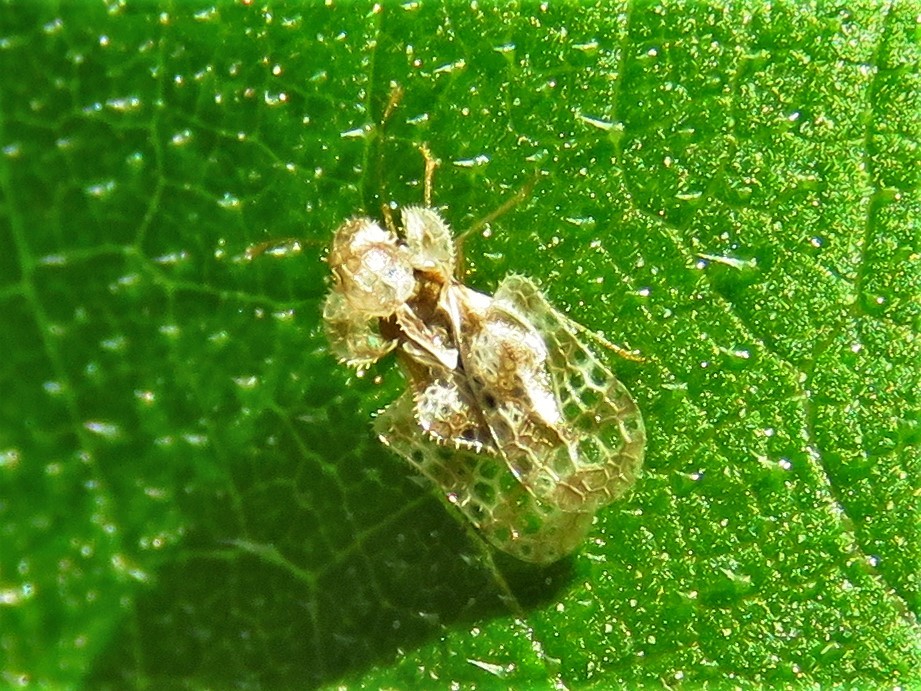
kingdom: Animalia
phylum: Arthropoda
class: Insecta
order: Hemiptera
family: Tingidae
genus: Corythucha
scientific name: Corythucha marmorata
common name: Chrysanthemum lace bug
